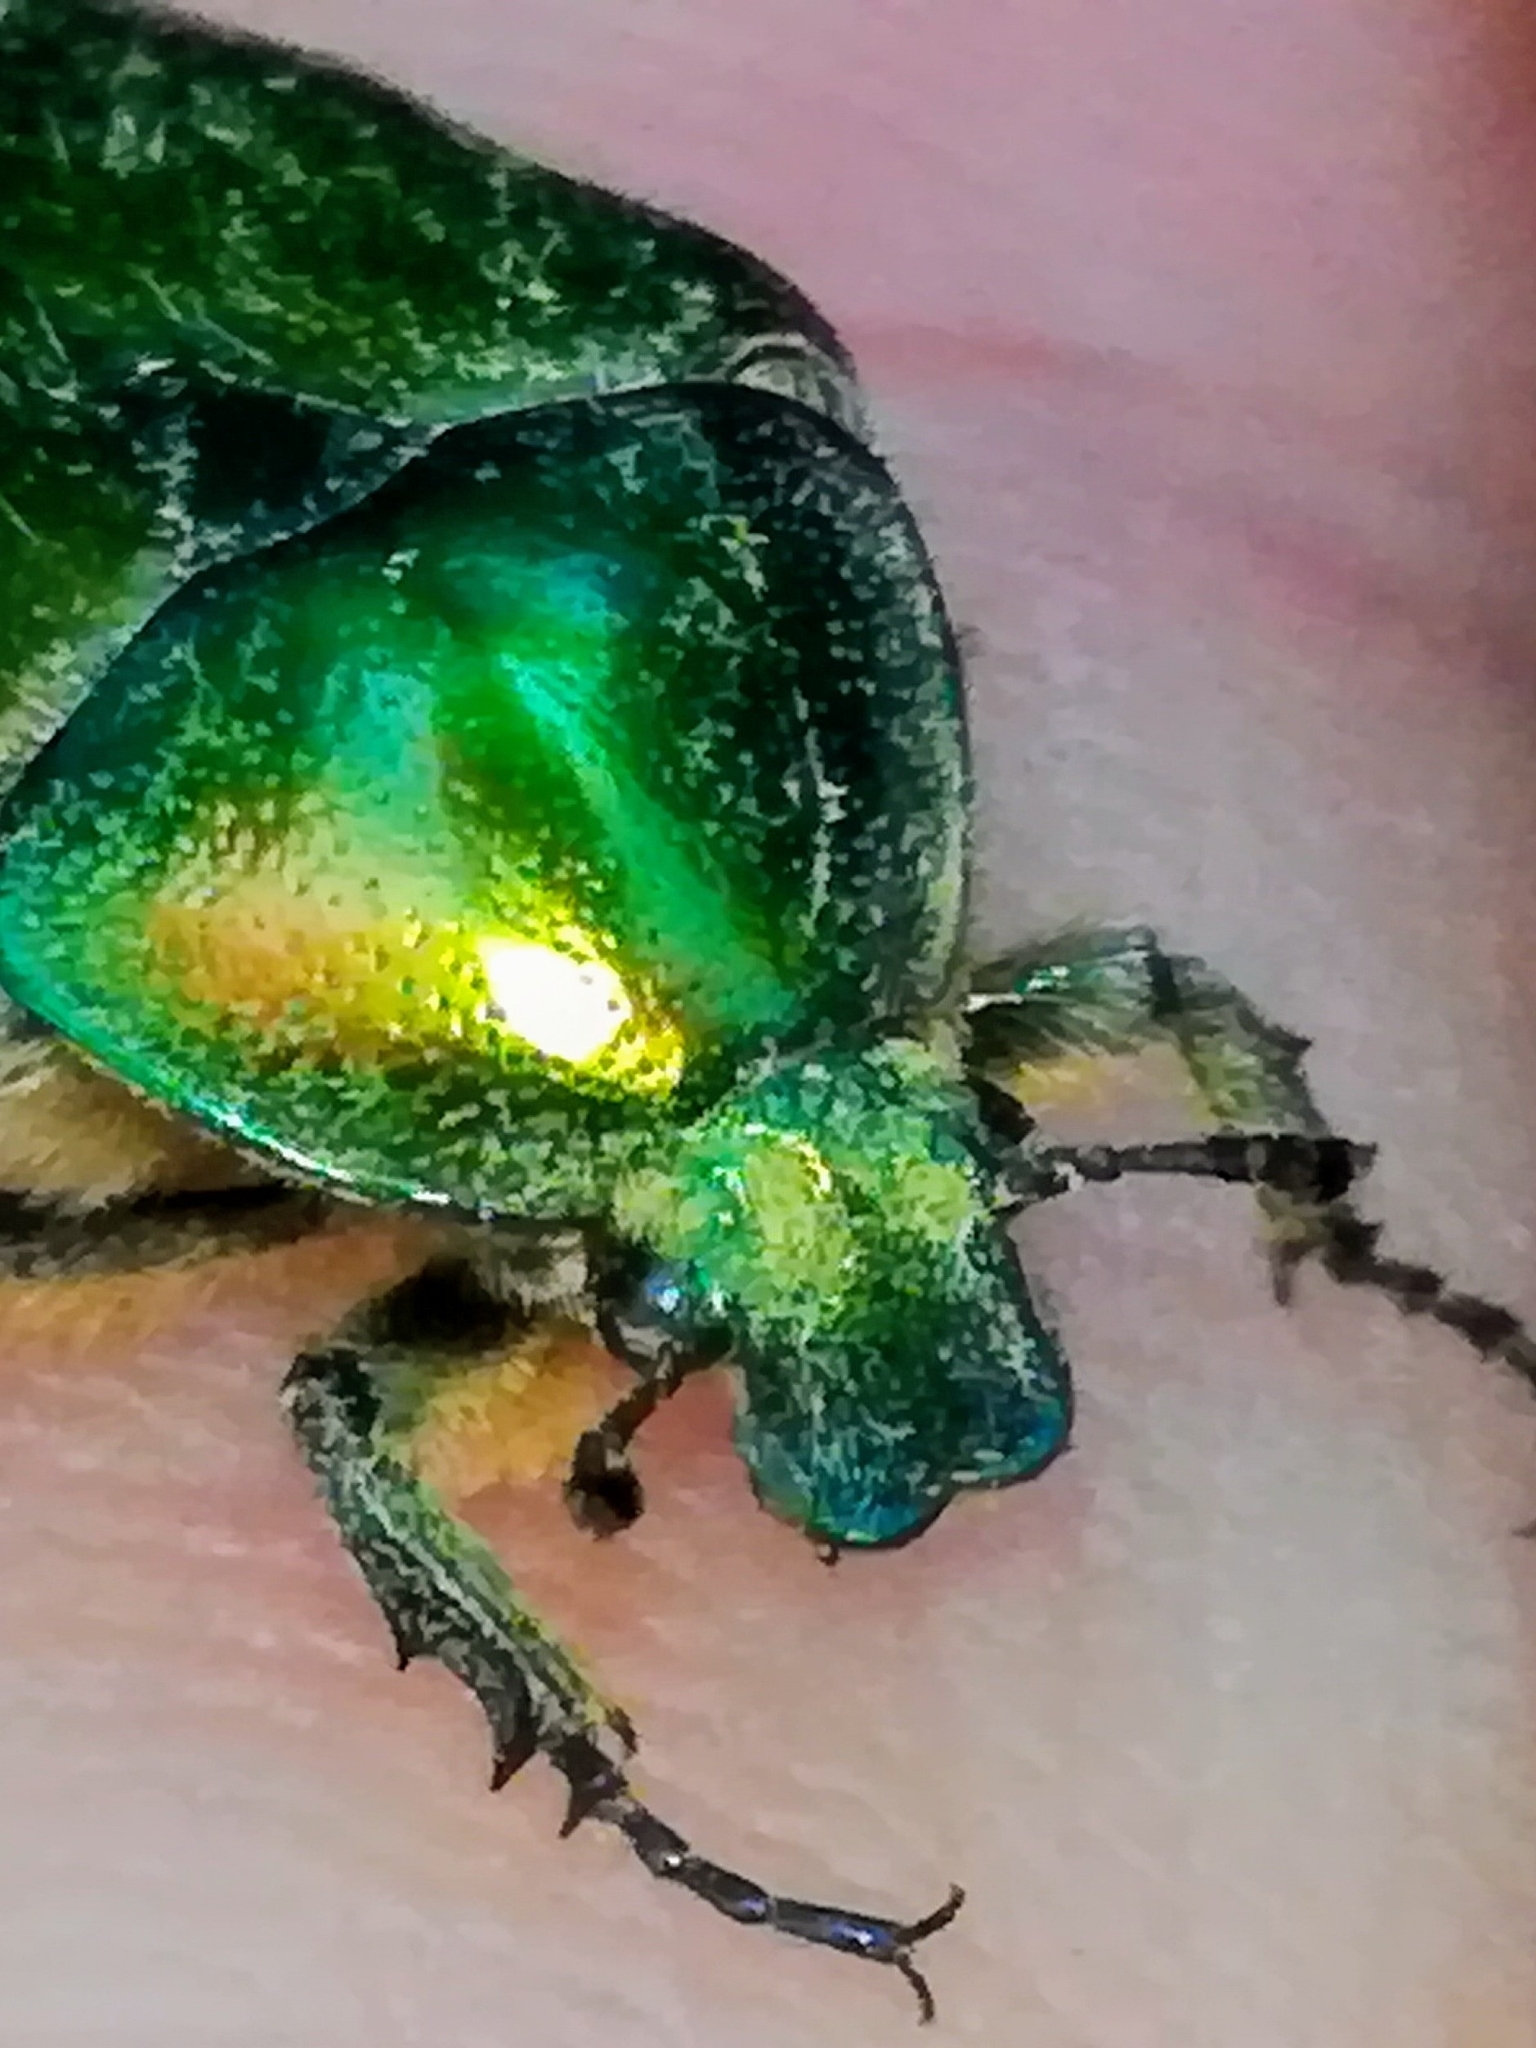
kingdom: Animalia
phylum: Arthropoda
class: Insecta
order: Coleoptera
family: Scarabaeidae
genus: Cetonia
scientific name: Cetonia aurata
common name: Rose chafer
